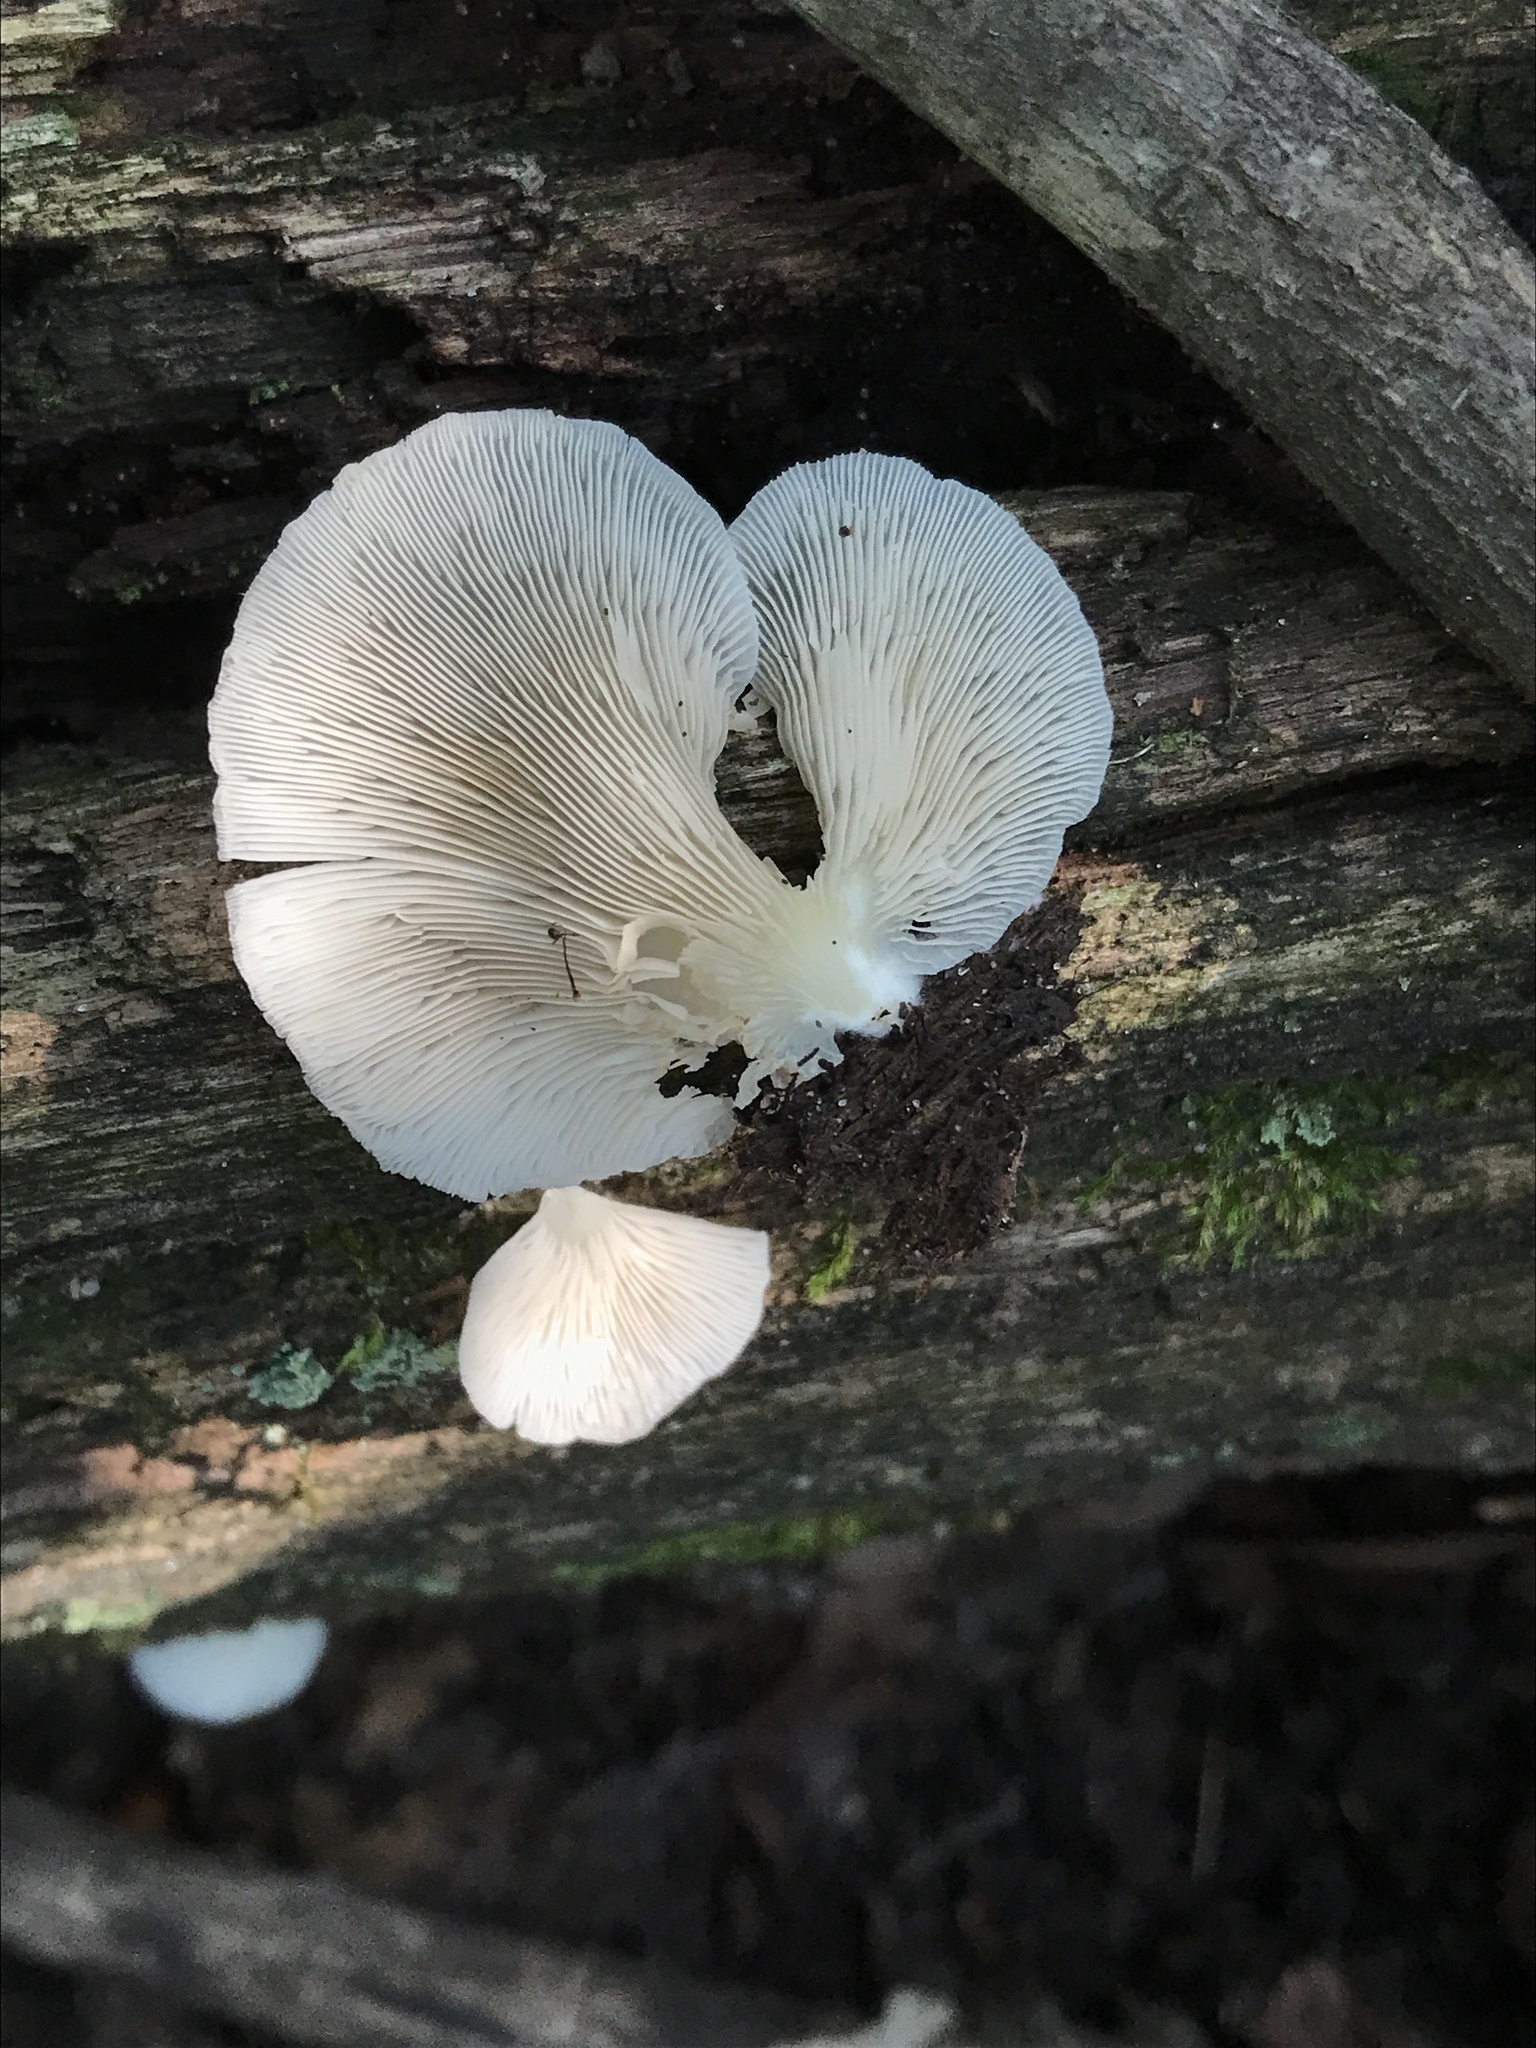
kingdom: Fungi
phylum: Basidiomycota
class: Agaricomycetes
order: Agaricales
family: Crepidotaceae
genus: Crepidotus
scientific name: Crepidotus mollis
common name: Peeling oysterling
